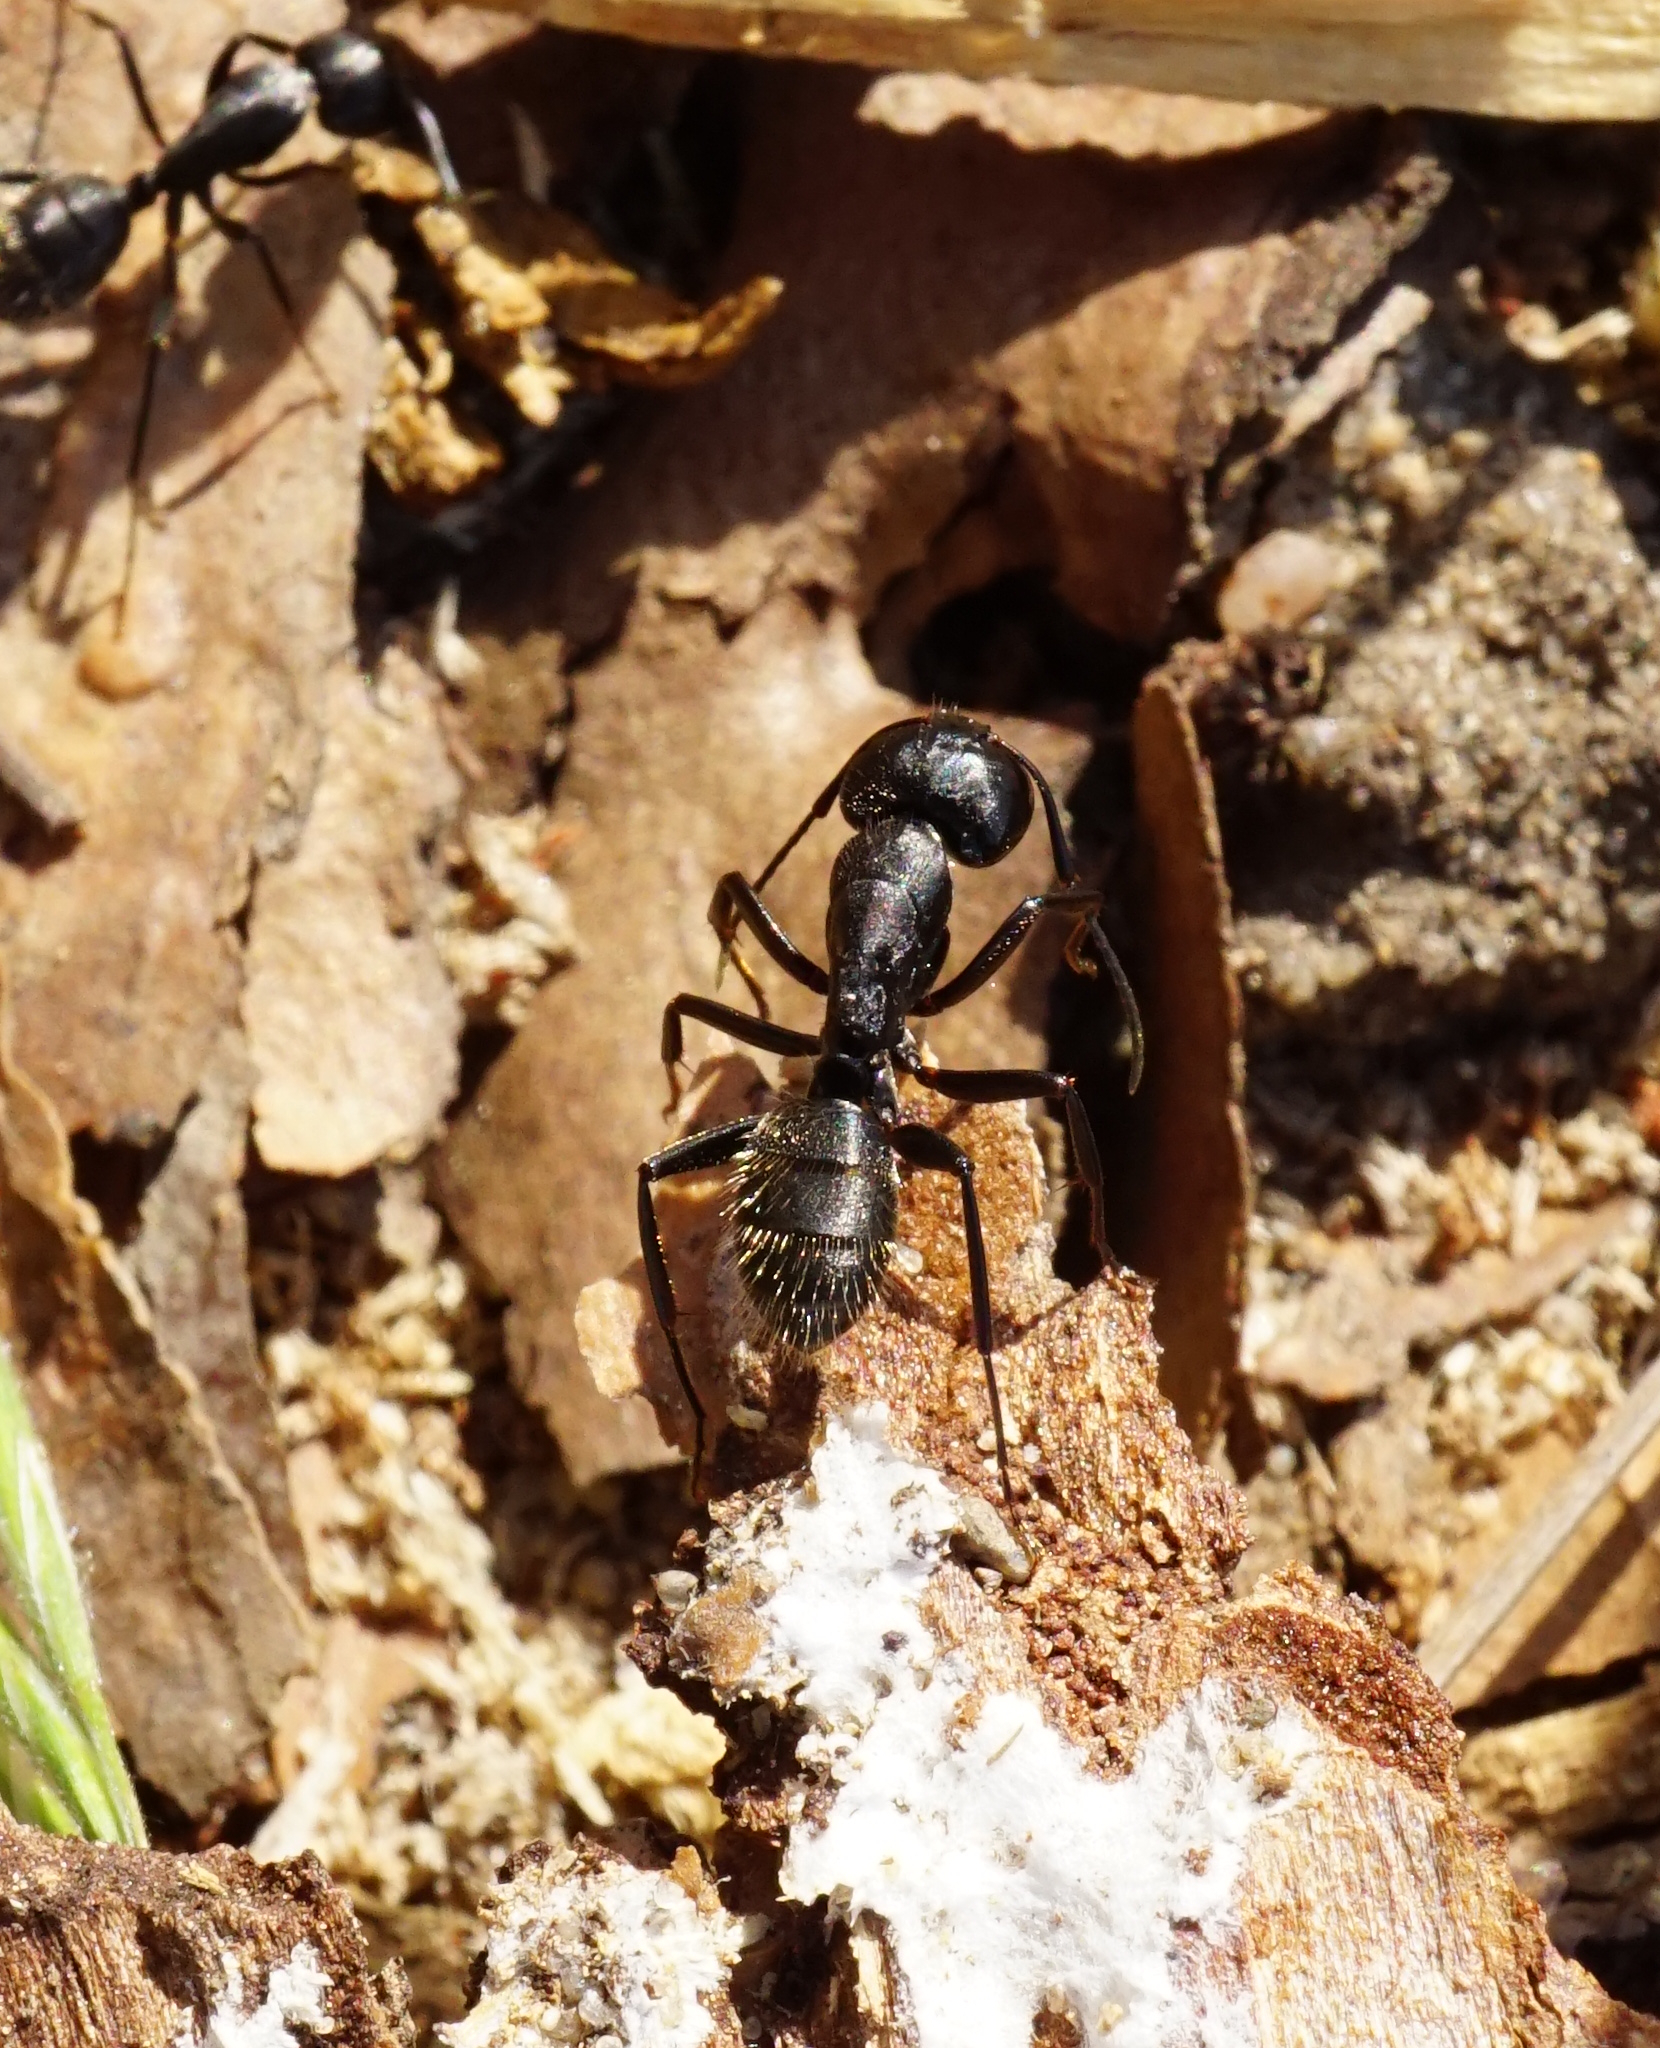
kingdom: Animalia
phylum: Arthropoda
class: Insecta
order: Hymenoptera
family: Formicidae
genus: Camponotus
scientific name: Camponotus vagus
